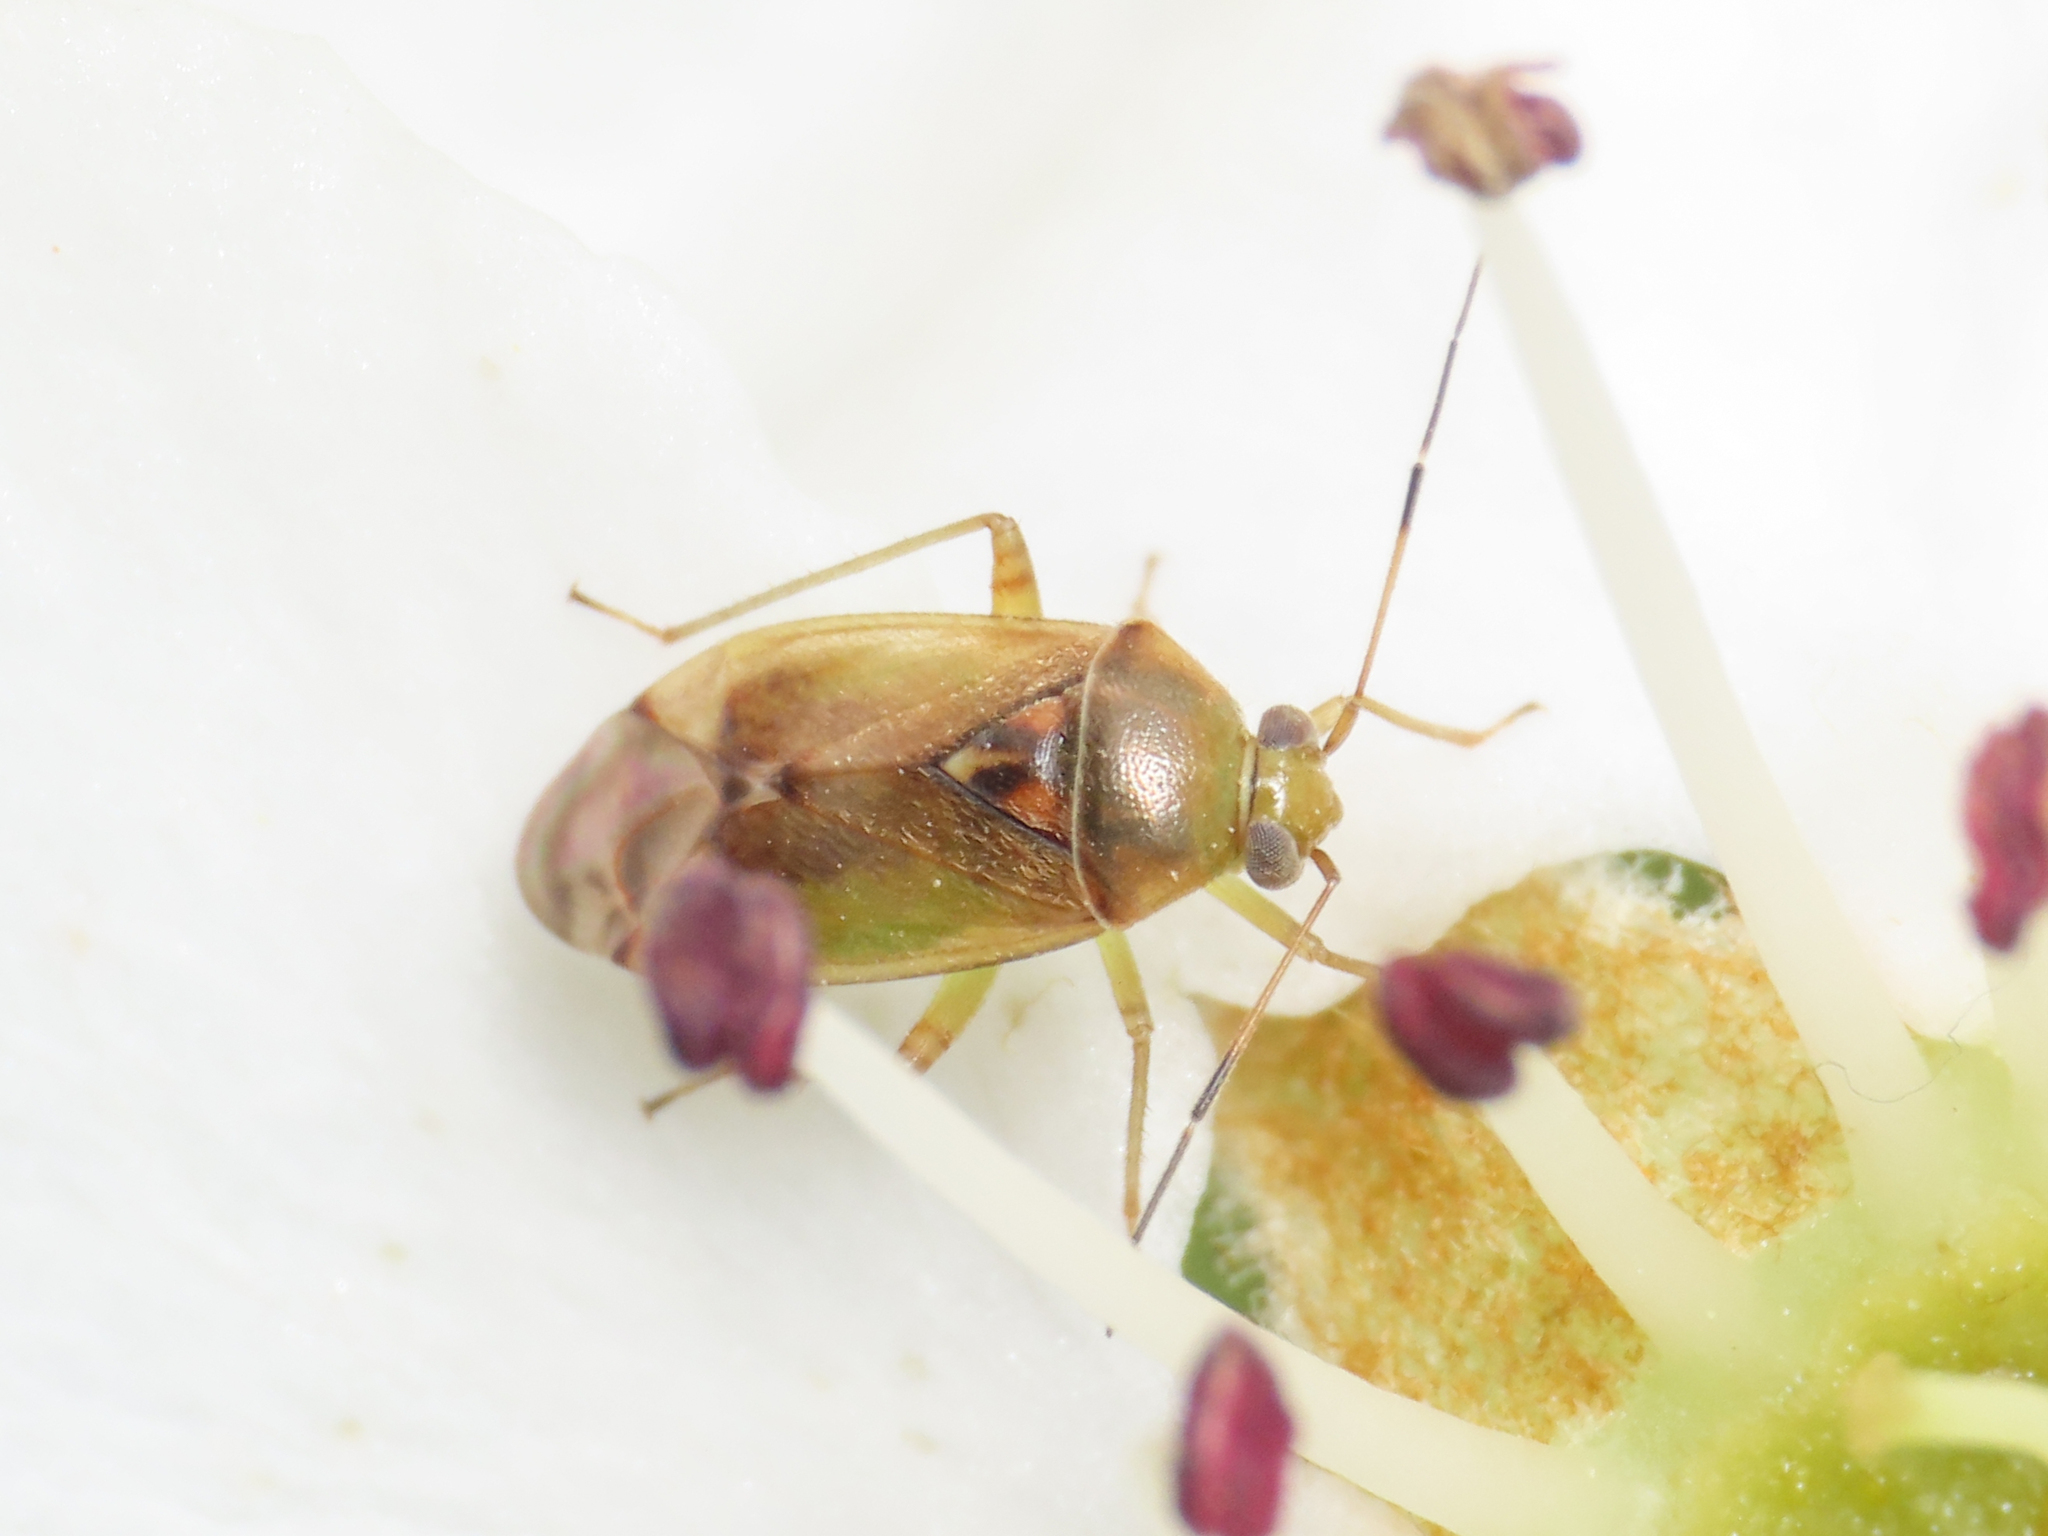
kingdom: Animalia
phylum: Arthropoda
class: Insecta
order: Hemiptera
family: Miridae
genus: Pinalitus
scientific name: Pinalitus cervinus
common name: Plant bug
